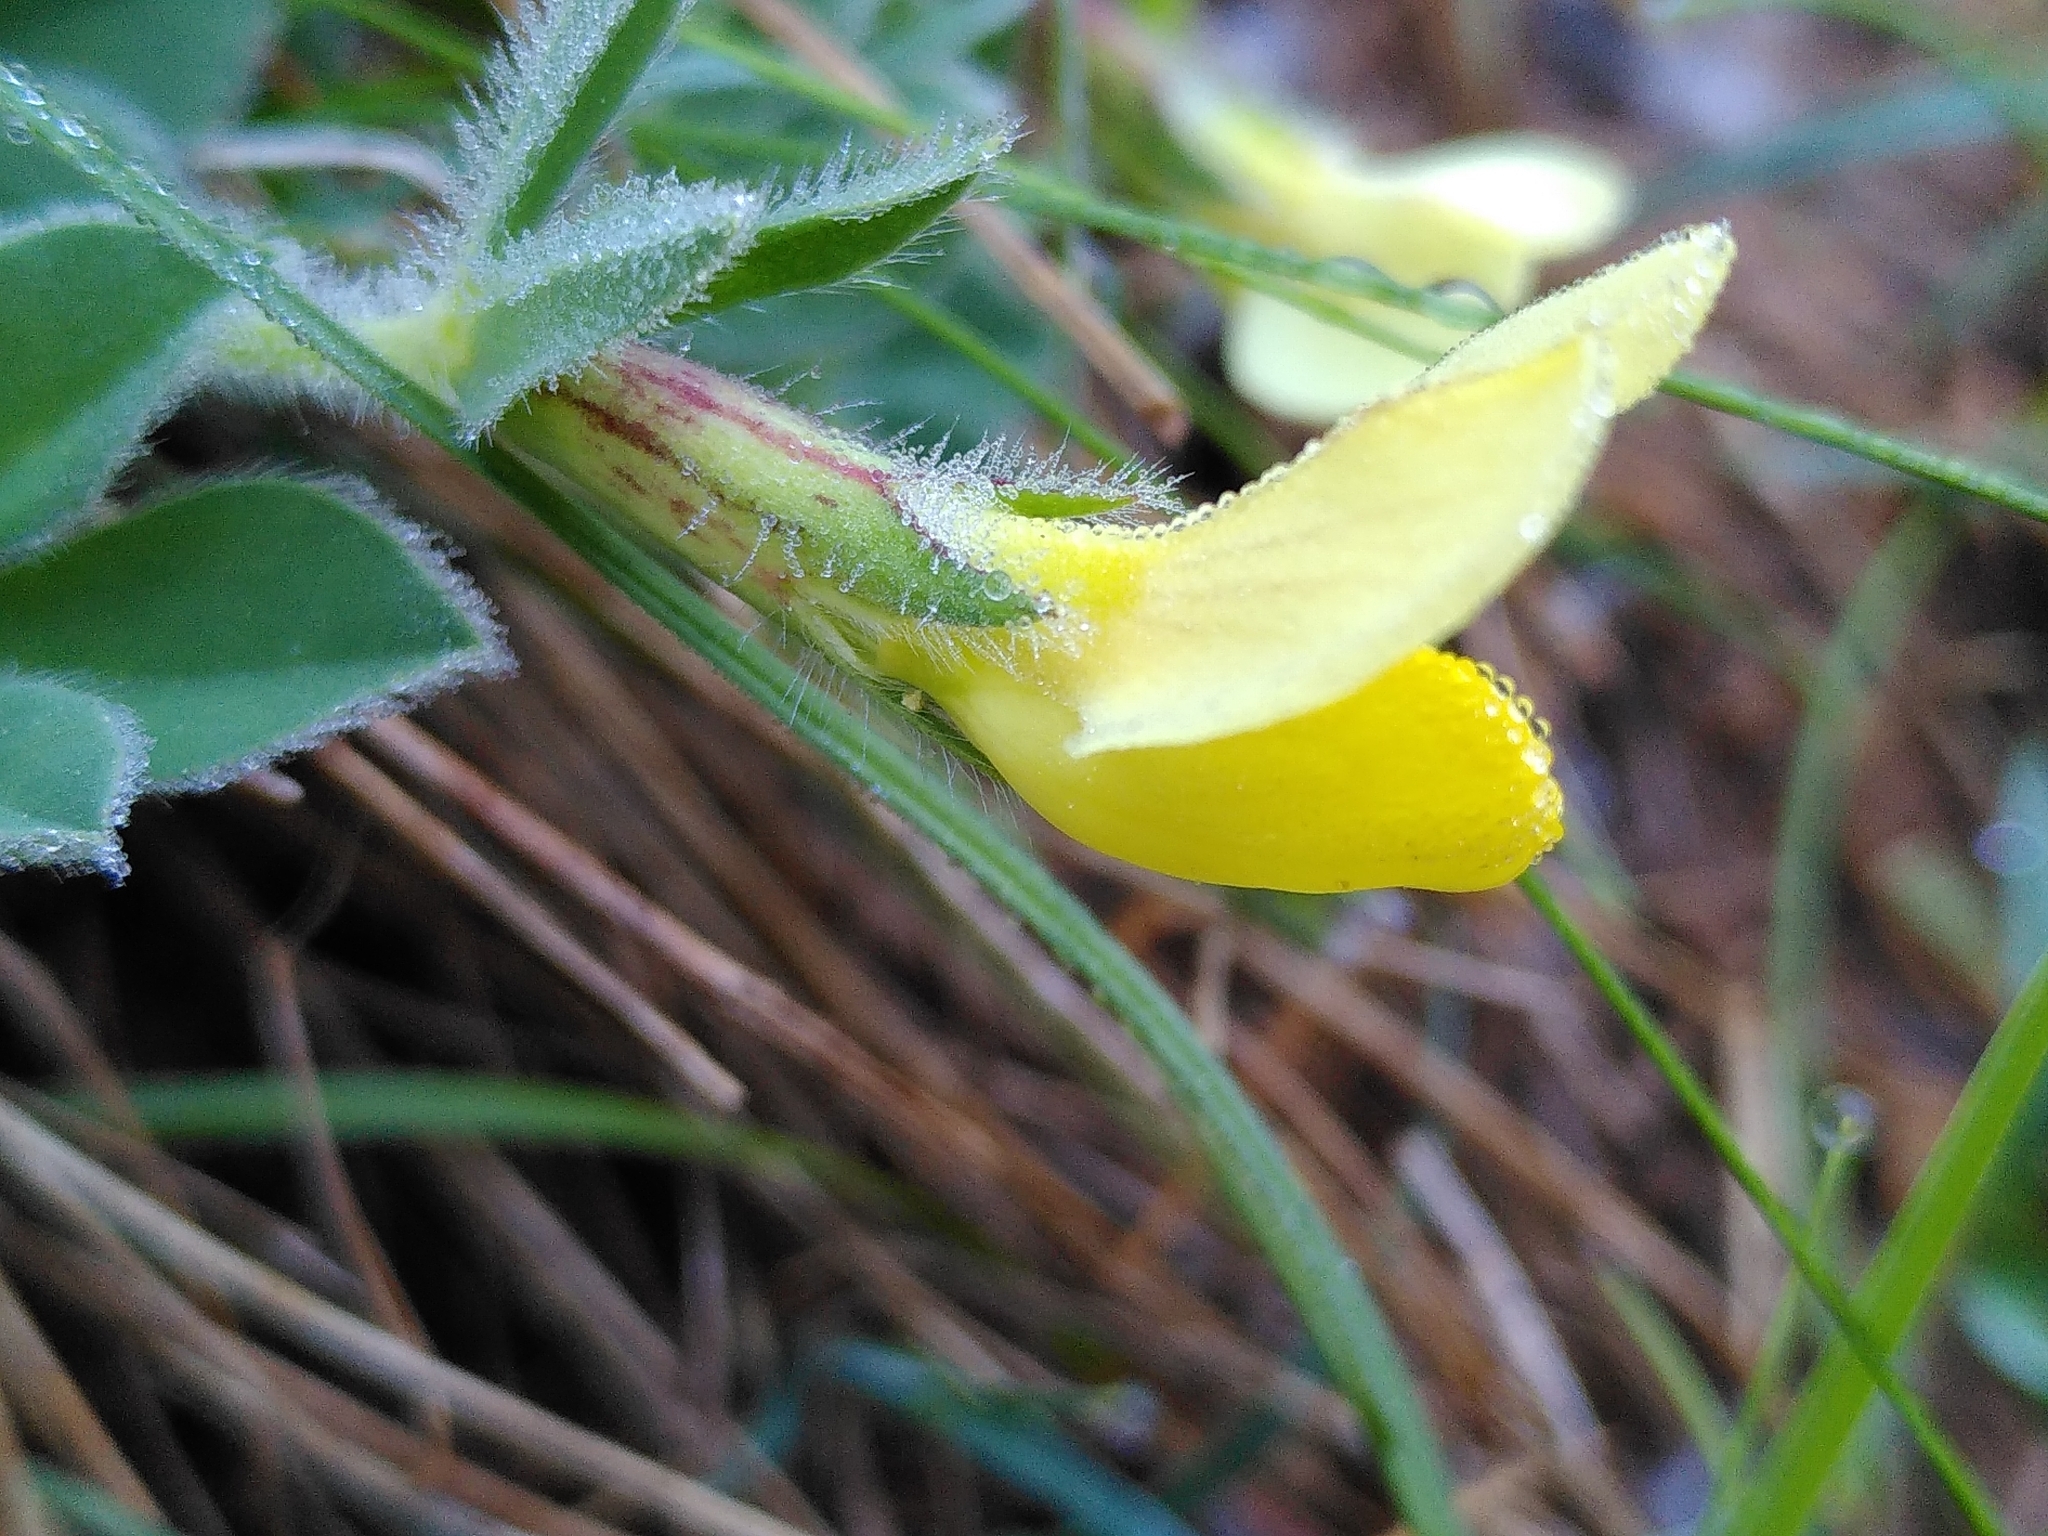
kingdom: Plantae
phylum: Tracheophyta
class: Magnoliopsida
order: Fabales
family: Fabaceae
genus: Lotus
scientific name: Lotus maritimus
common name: Dragon's-teeth
